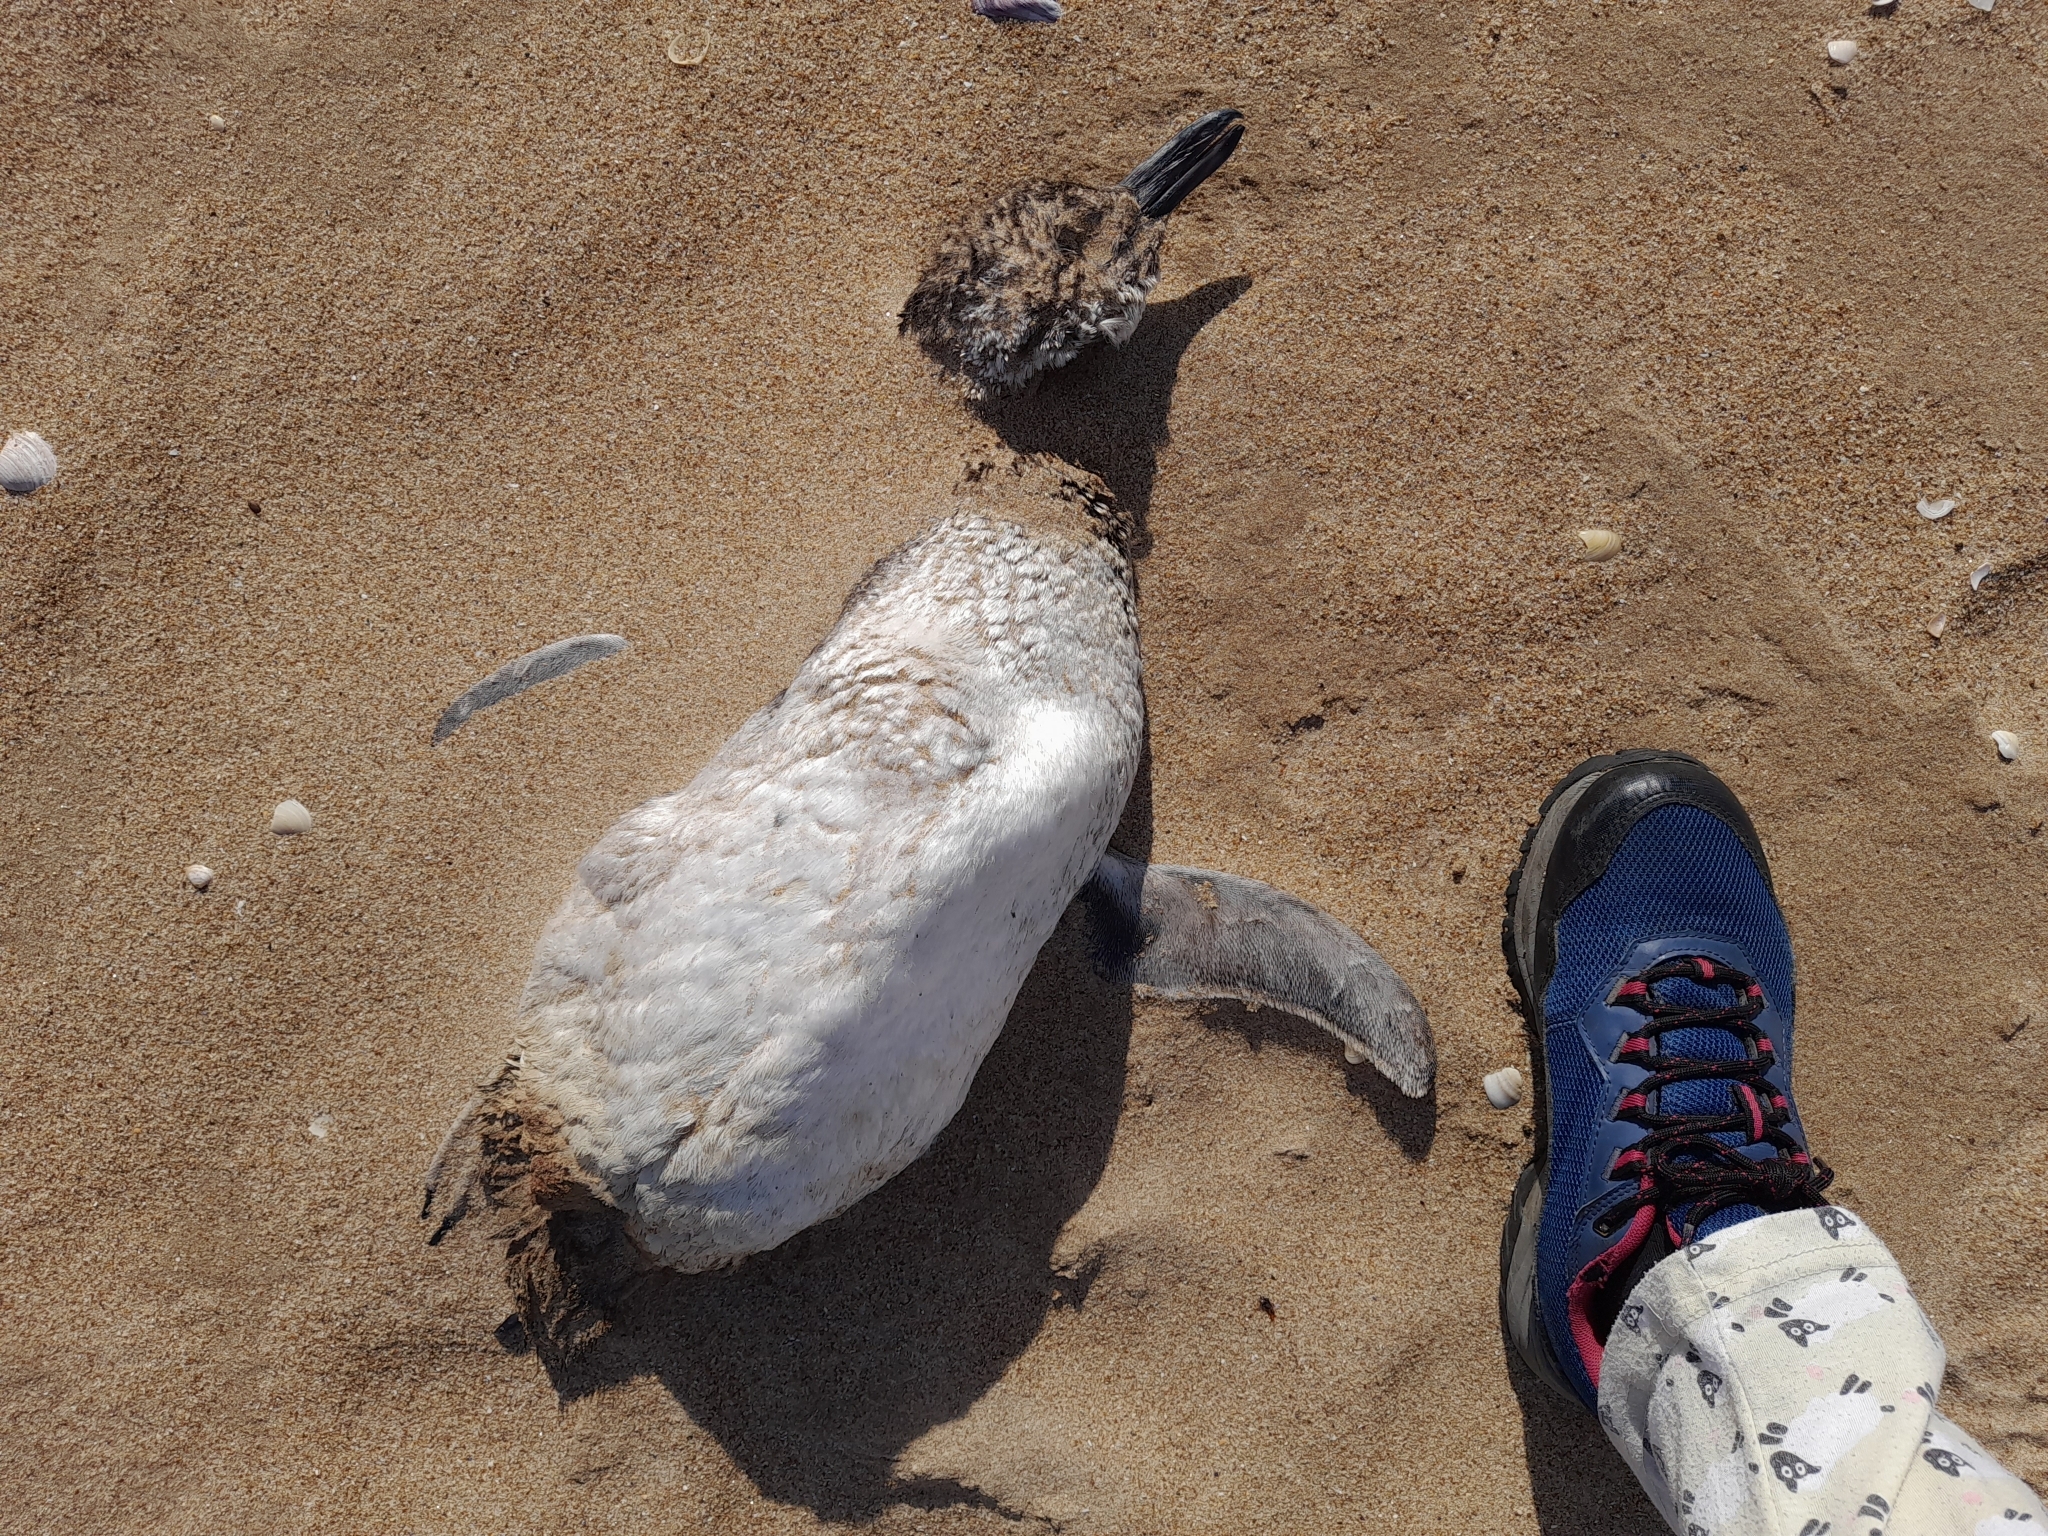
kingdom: Animalia
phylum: Chordata
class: Aves
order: Sphenisciformes
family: Spheniscidae
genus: Spheniscus
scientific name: Spheniscus magellanicus
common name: Magellanic penguin
